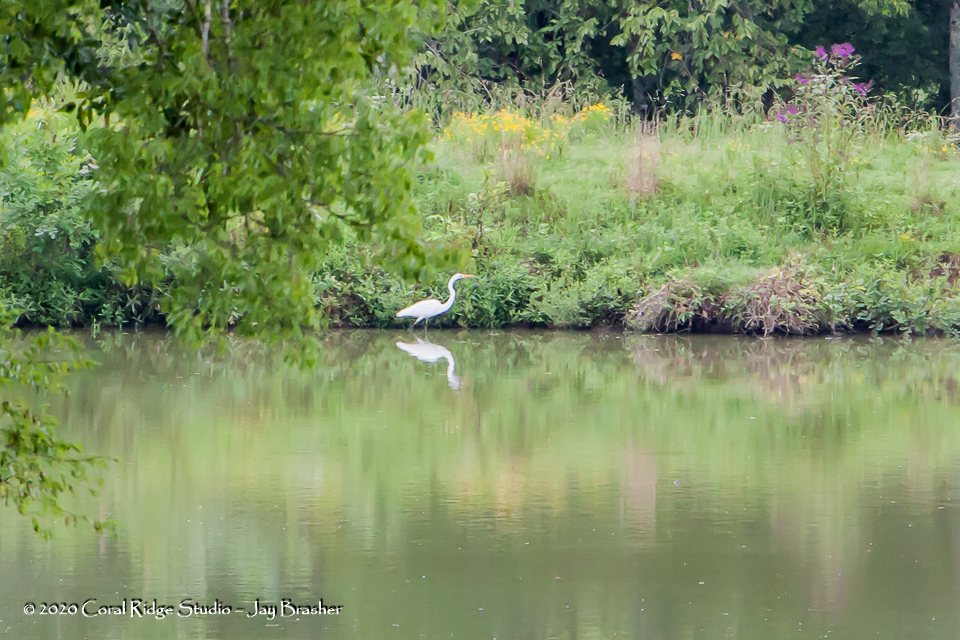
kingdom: Animalia
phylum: Chordata
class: Aves
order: Pelecaniformes
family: Ardeidae
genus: Ardea
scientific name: Ardea alba
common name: Great egret
